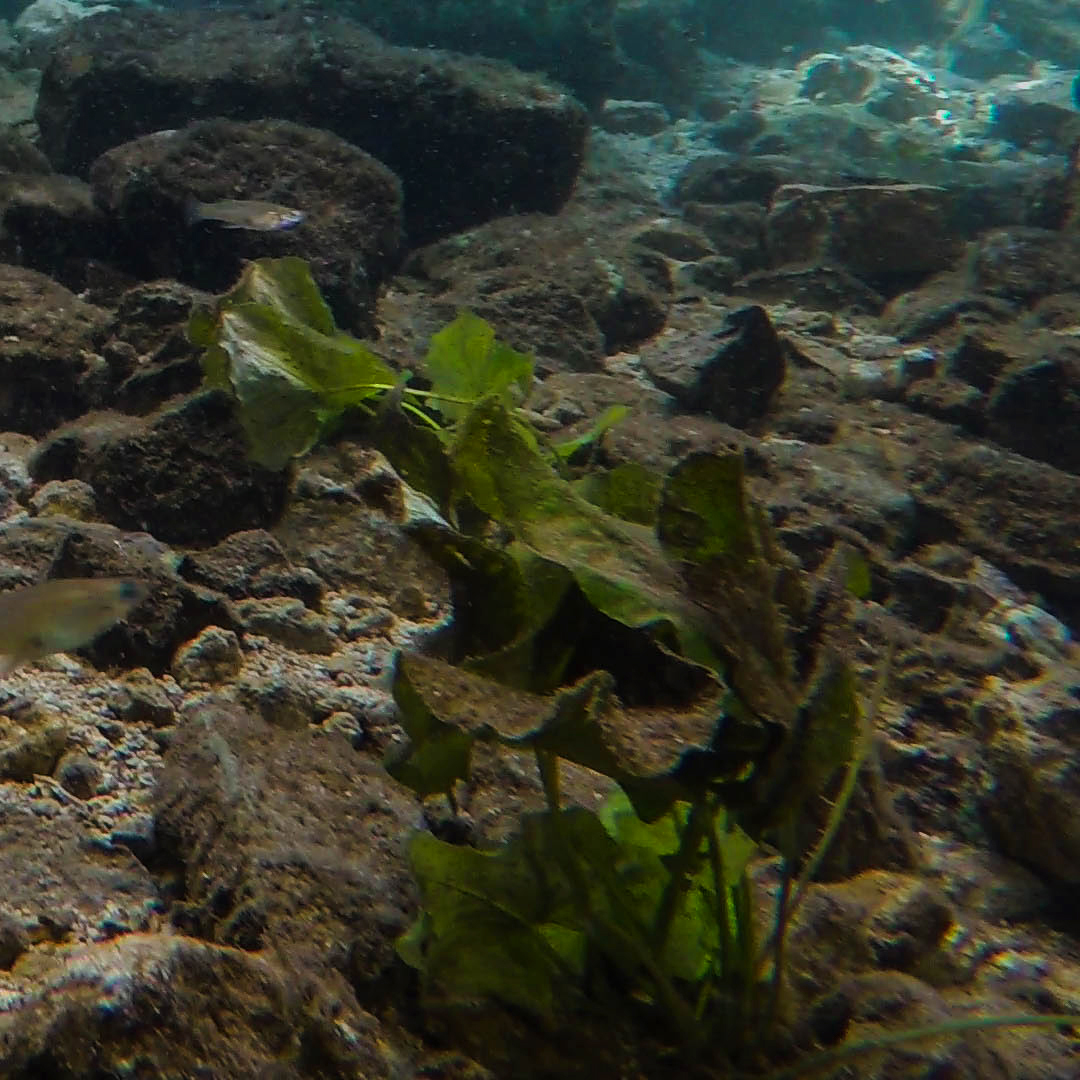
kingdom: Plantae
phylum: Tracheophyta
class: Magnoliopsida
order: Nymphaeales
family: Nymphaeaceae
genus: Nymphaea
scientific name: Nymphaea ampla
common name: Dotleaf waterlily
